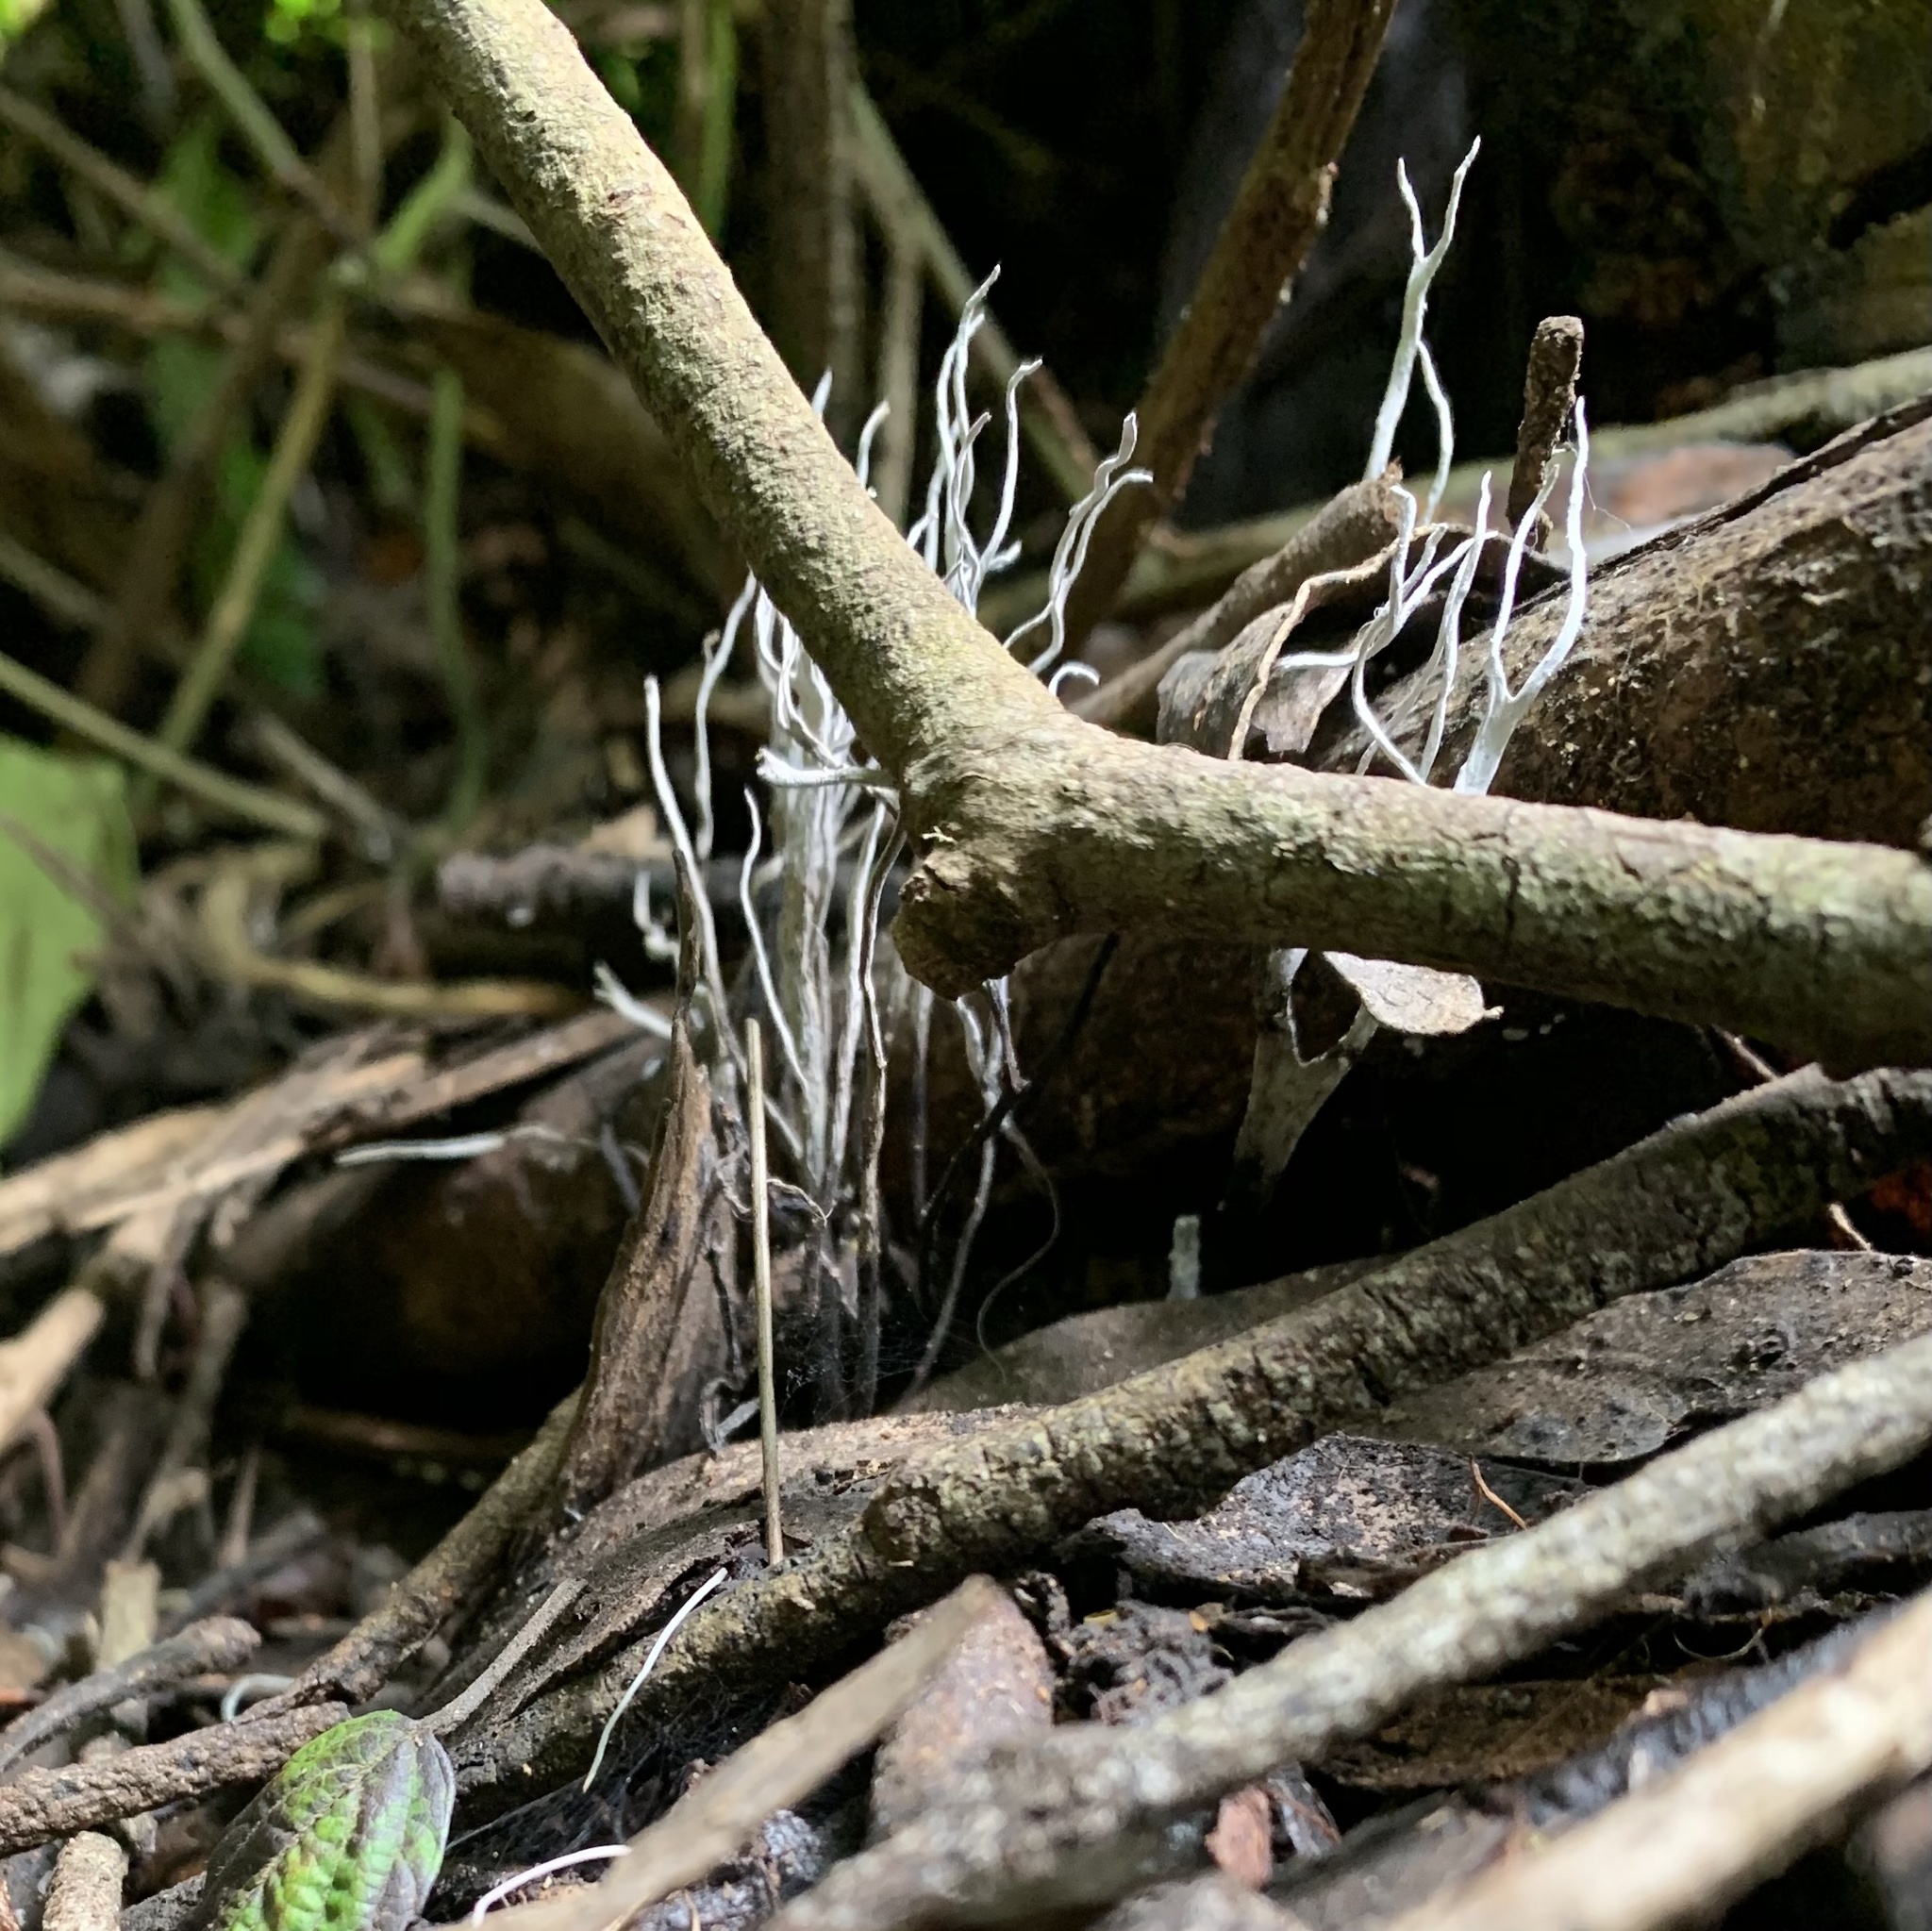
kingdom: Fungi
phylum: Ascomycota
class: Sordariomycetes
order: Xylariales
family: Xylariaceae
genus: Xylaria
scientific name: Xylaria hypoxylon
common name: Candle-snuff fungus
